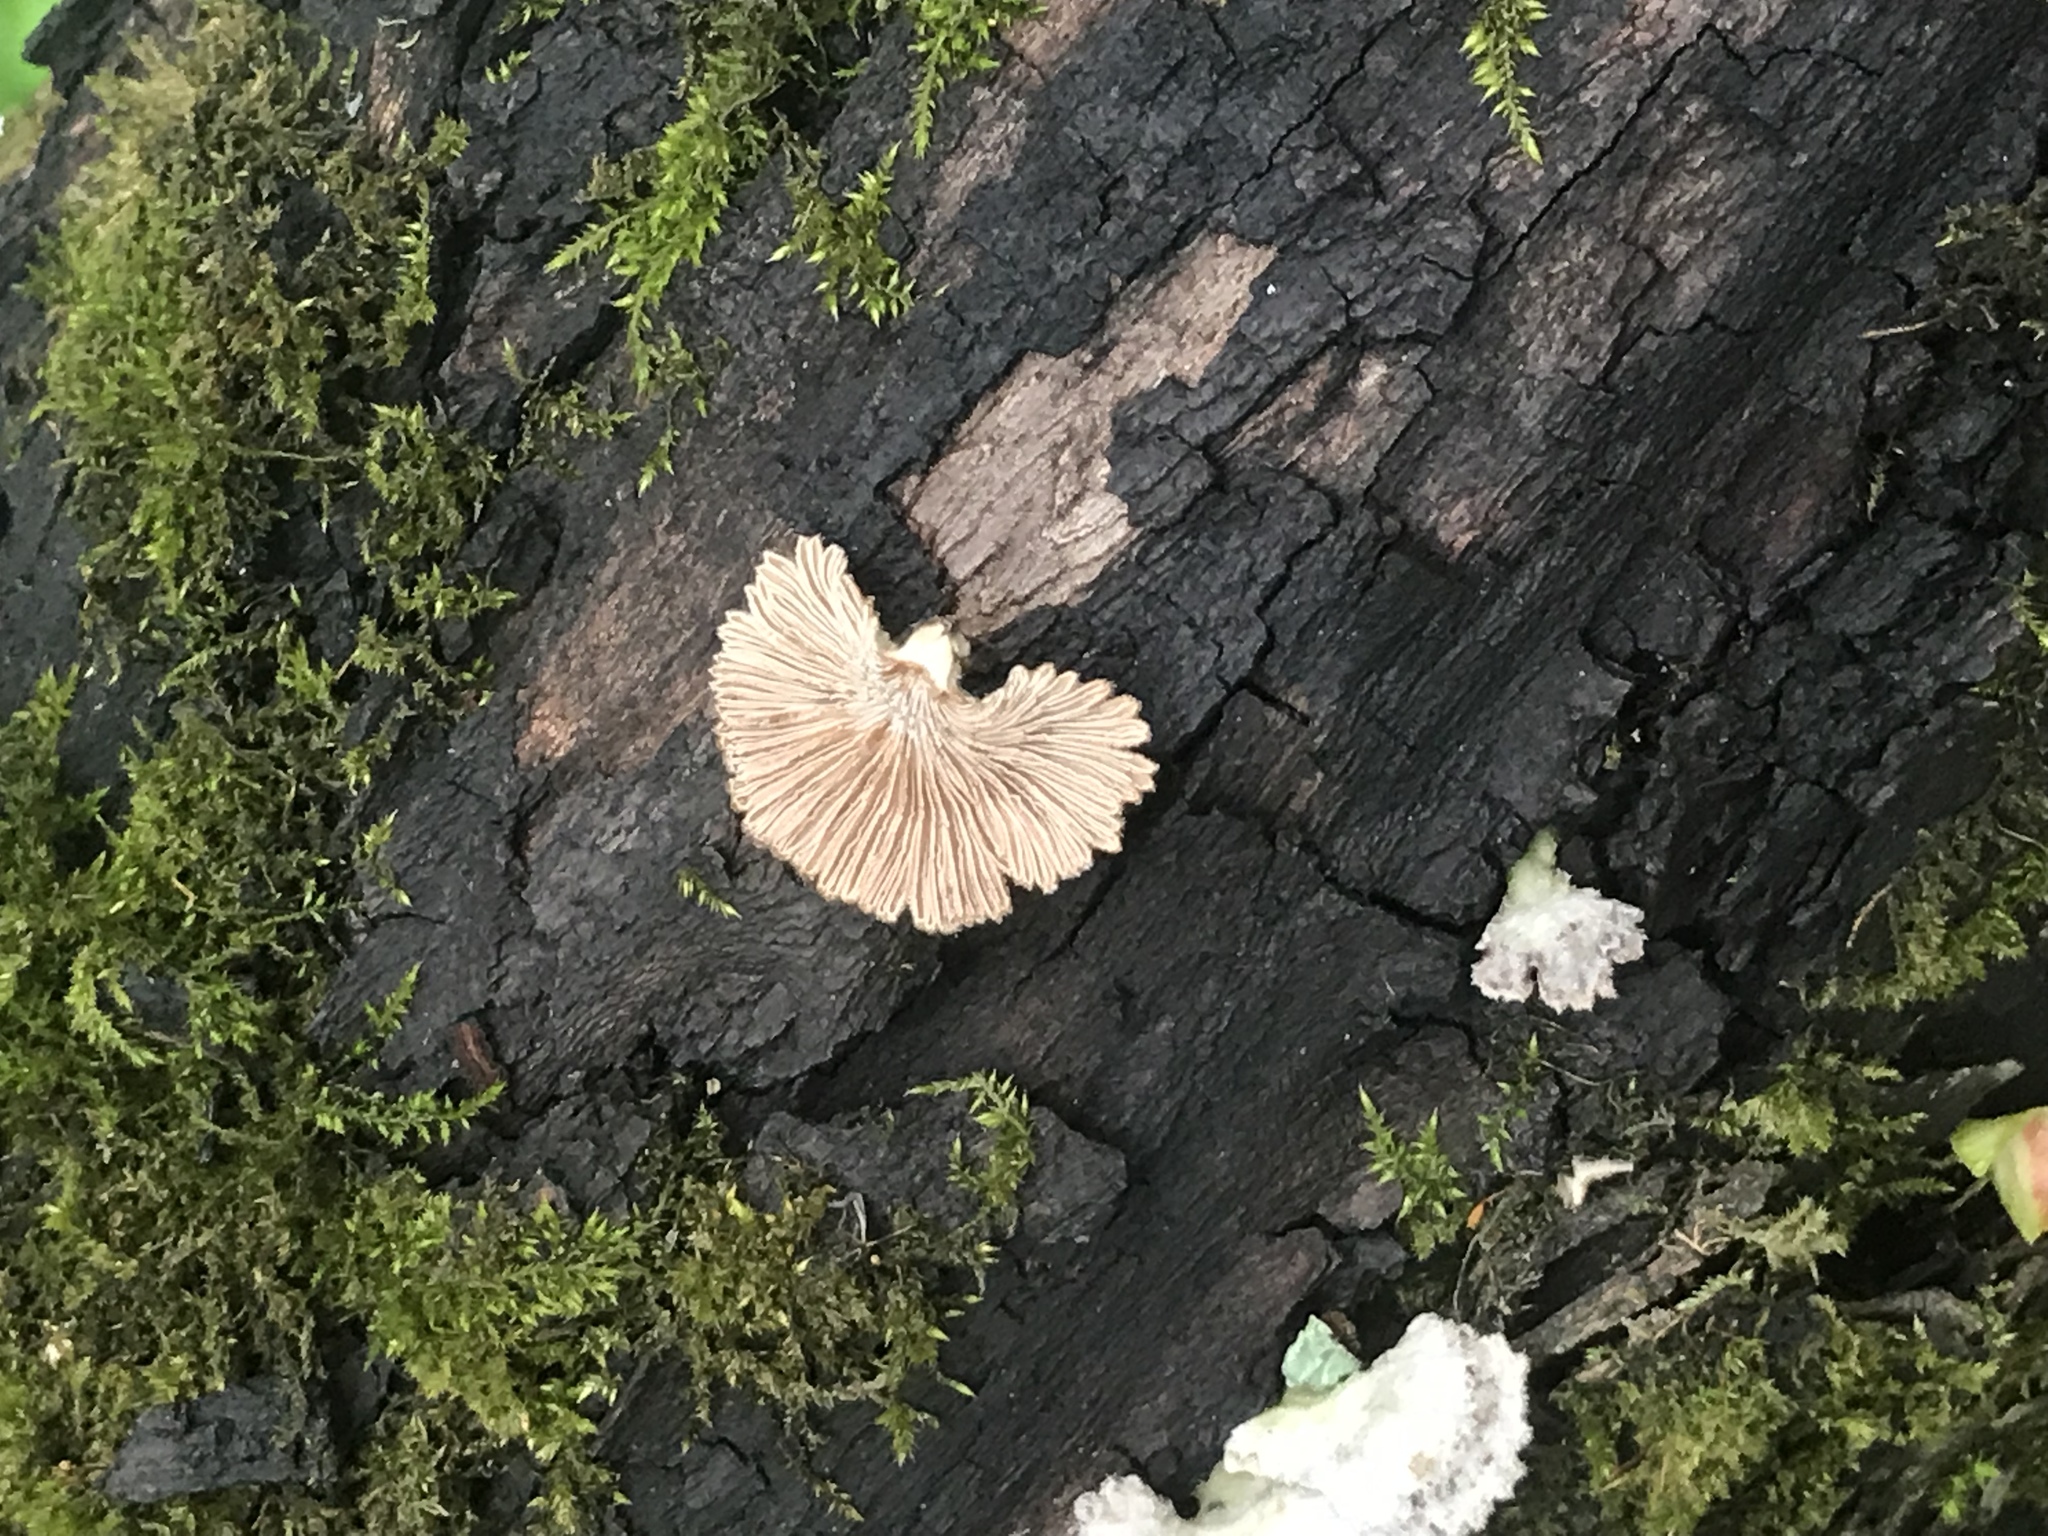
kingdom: Fungi
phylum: Basidiomycota
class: Agaricomycetes
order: Agaricales
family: Schizophyllaceae
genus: Schizophyllum
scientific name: Schizophyllum commune
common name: Common porecrust
